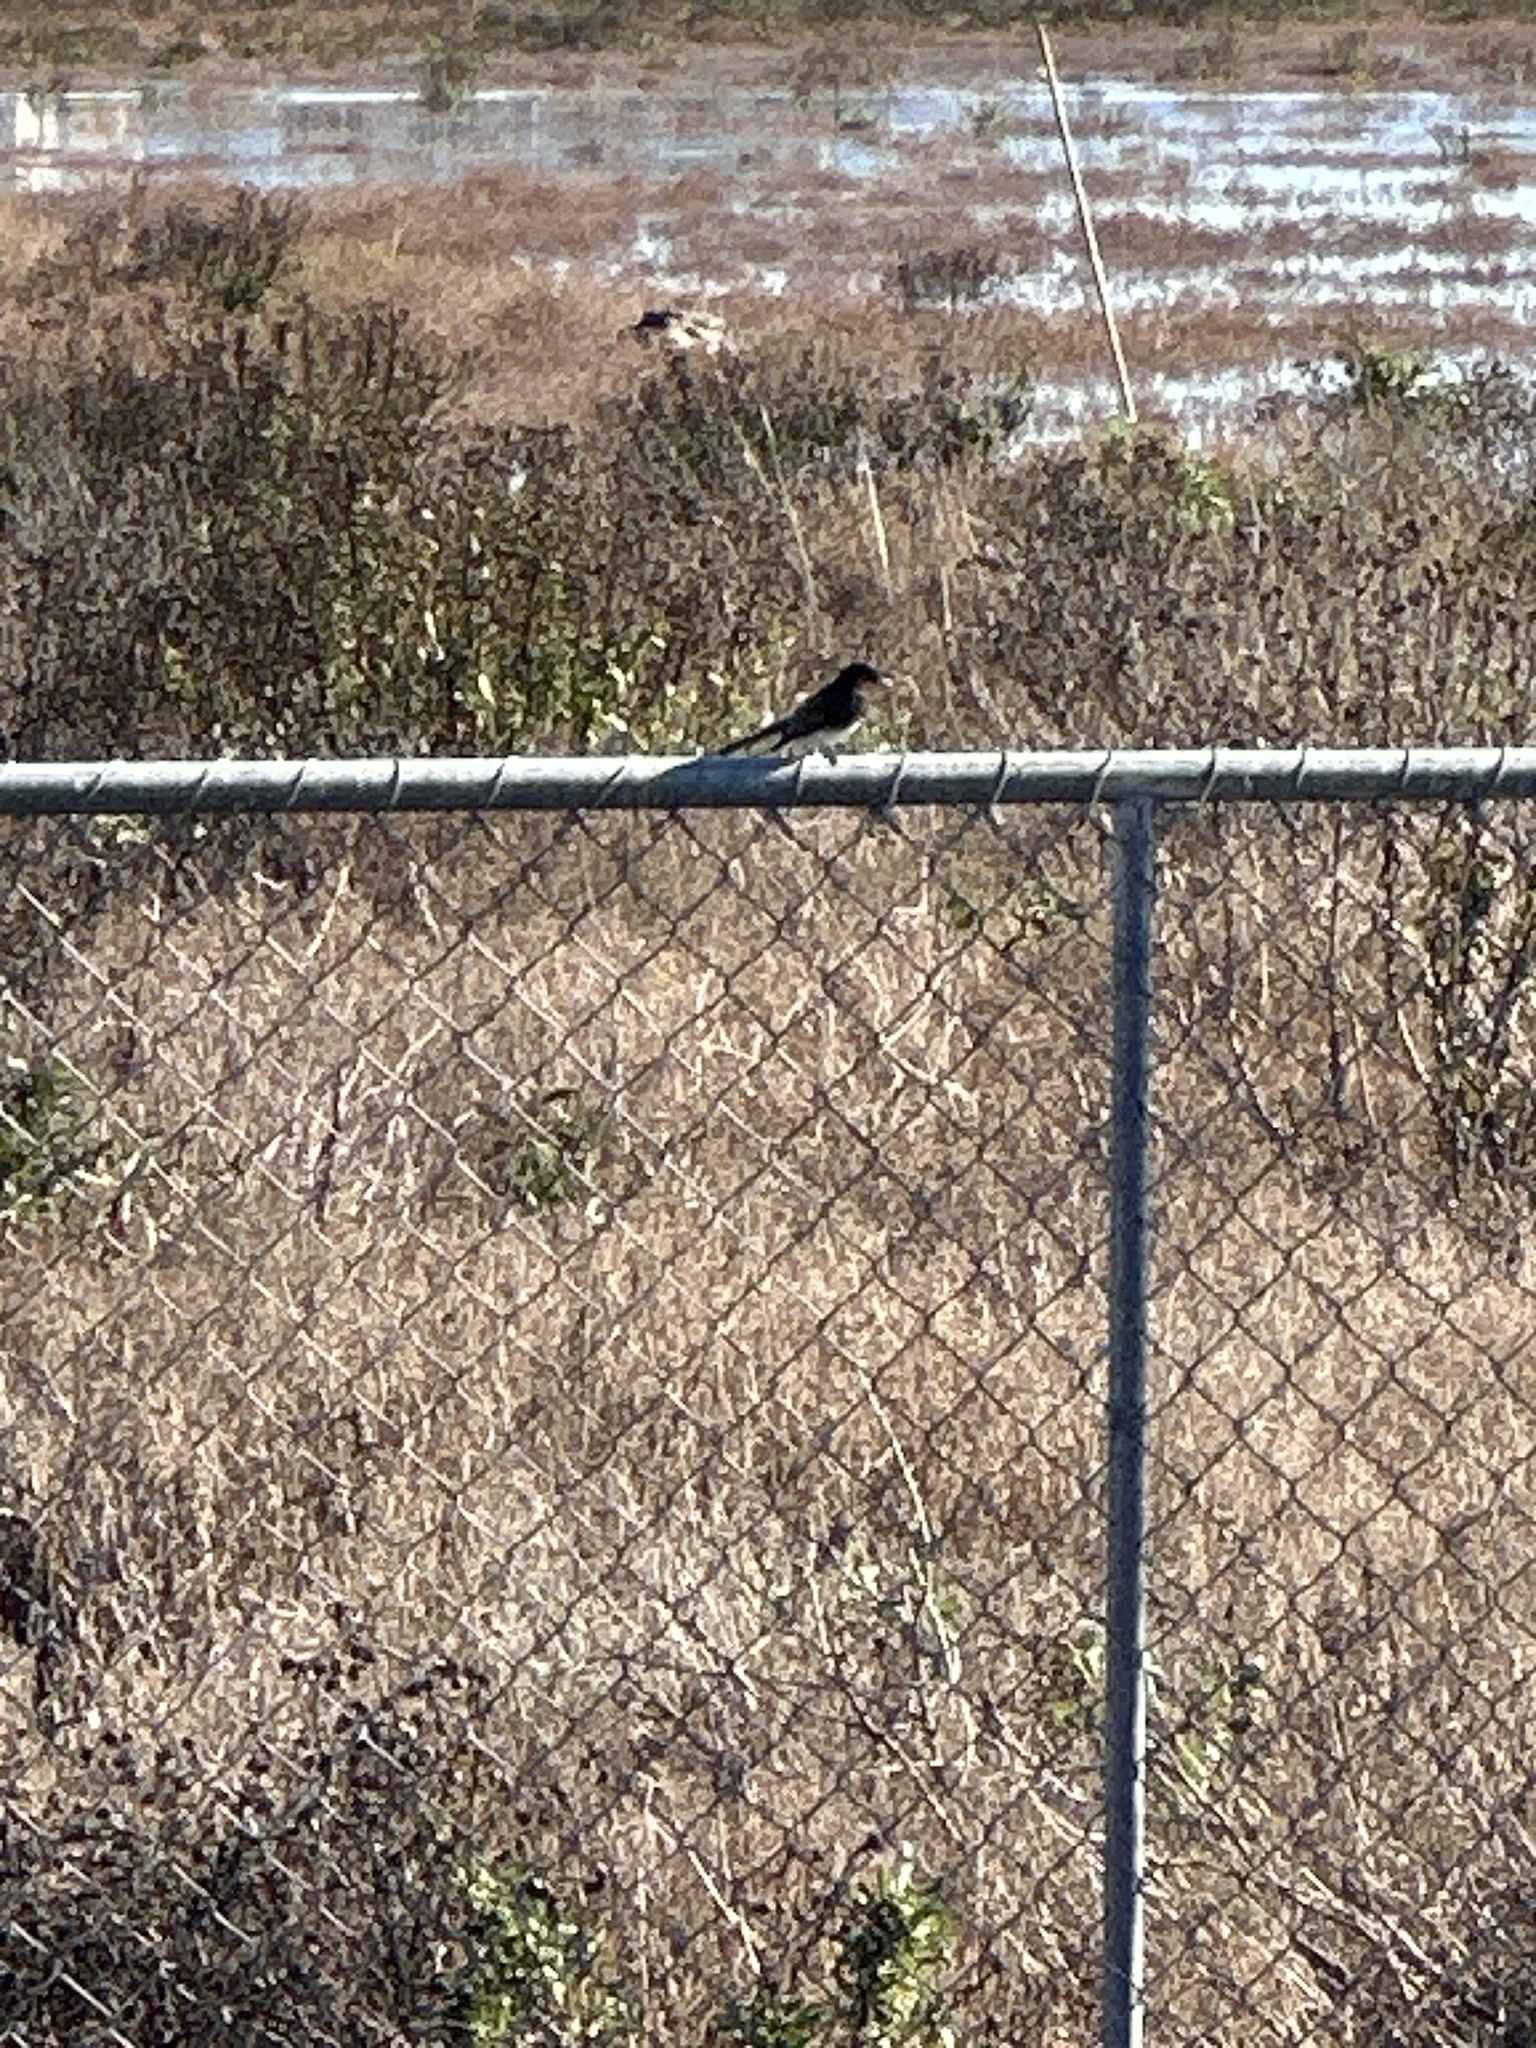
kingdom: Animalia
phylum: Chordata
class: Aves
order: Passeriformes
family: Tyrannidae
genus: Sayornis
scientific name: Sayornis nigricans
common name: Black phoebe
